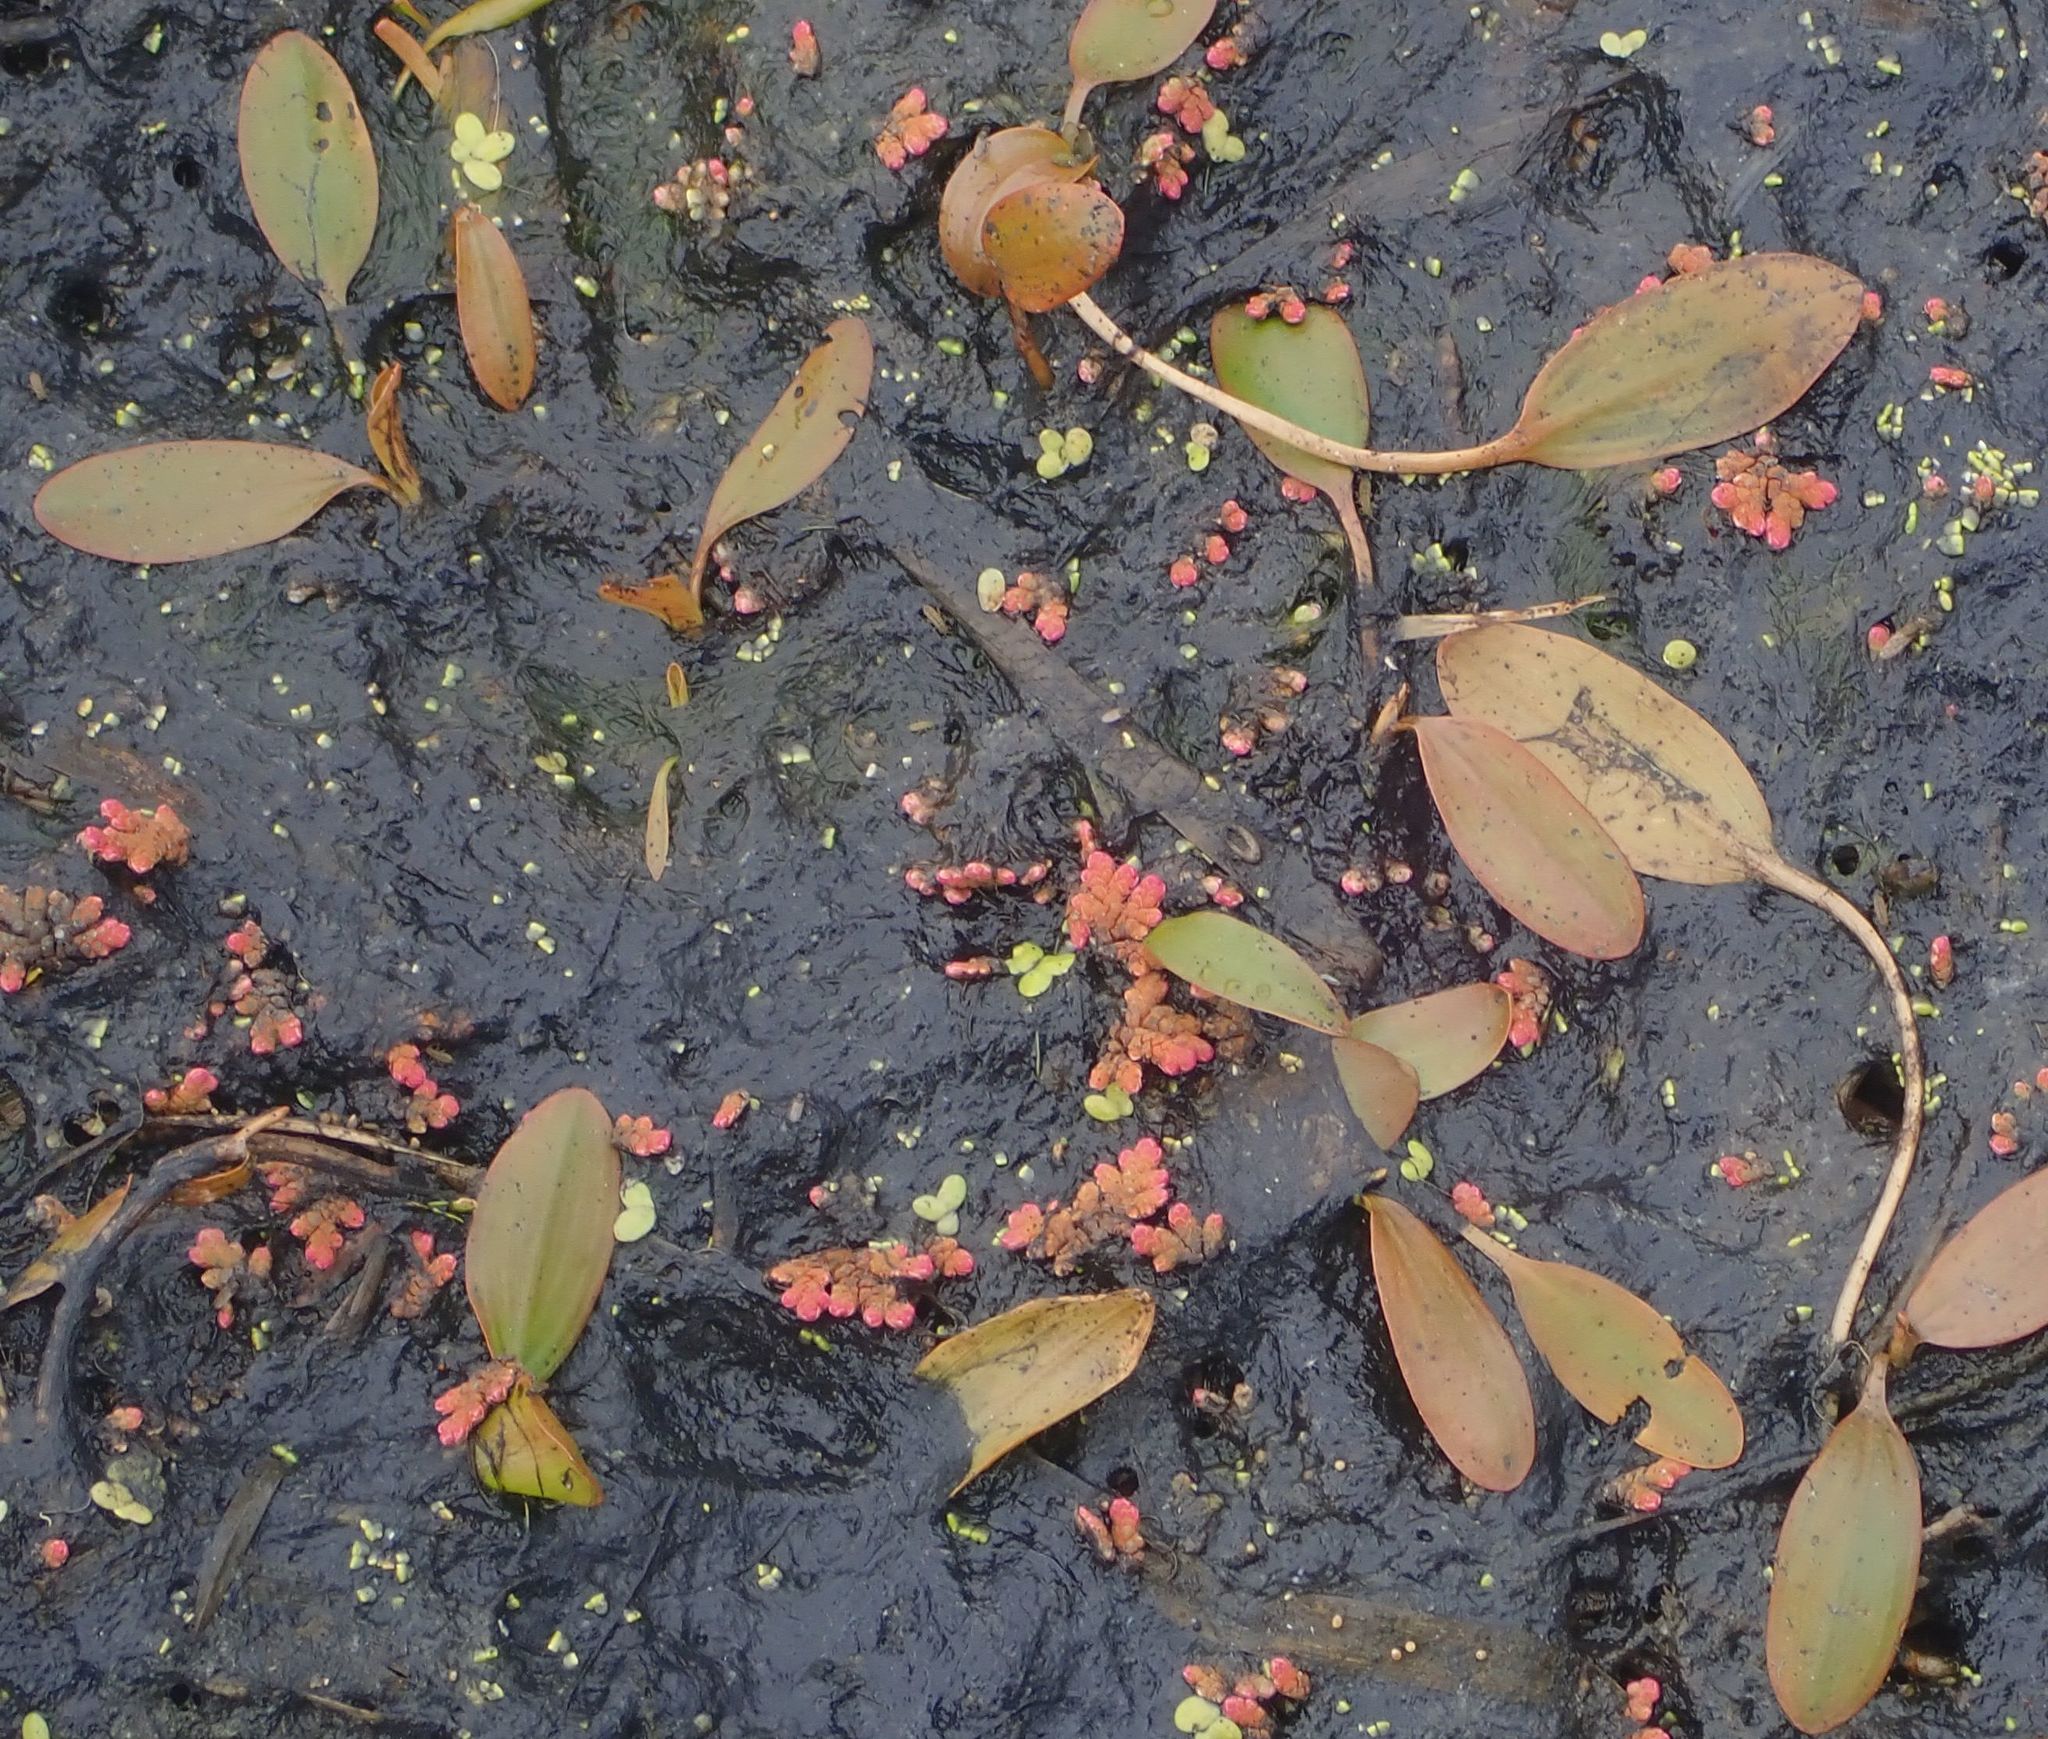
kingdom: Plantae
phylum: Tracheophyta
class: Liliopsida
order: Alismatales
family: Potamogetonaceae
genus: Potamogeton
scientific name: Potamogeton cheesemanii
